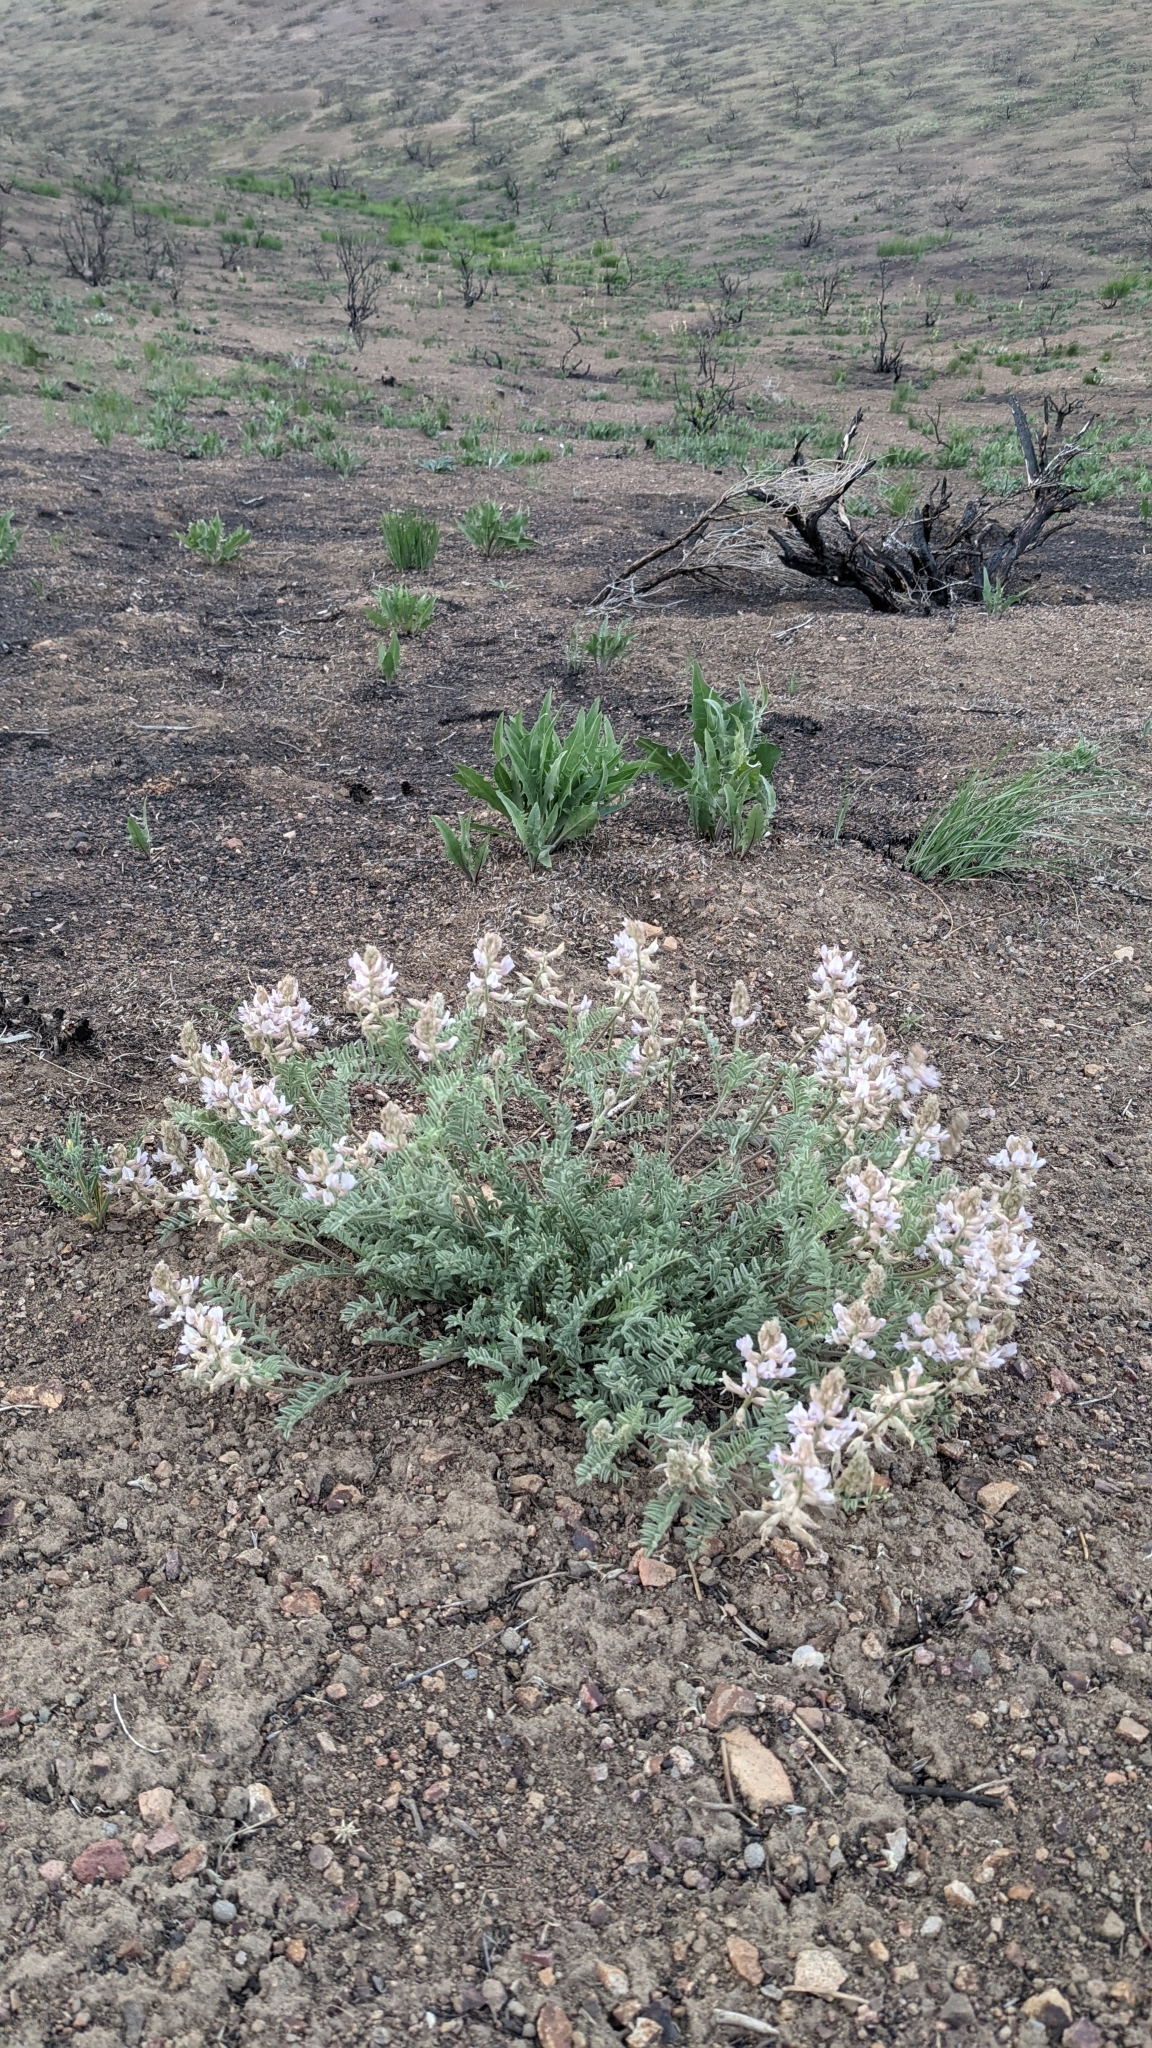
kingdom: Plantae
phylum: Tracheophyta
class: Magnoliopsida
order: Fabales
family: Fabaceae
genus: Astragalus
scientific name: Astragalus andersonii
